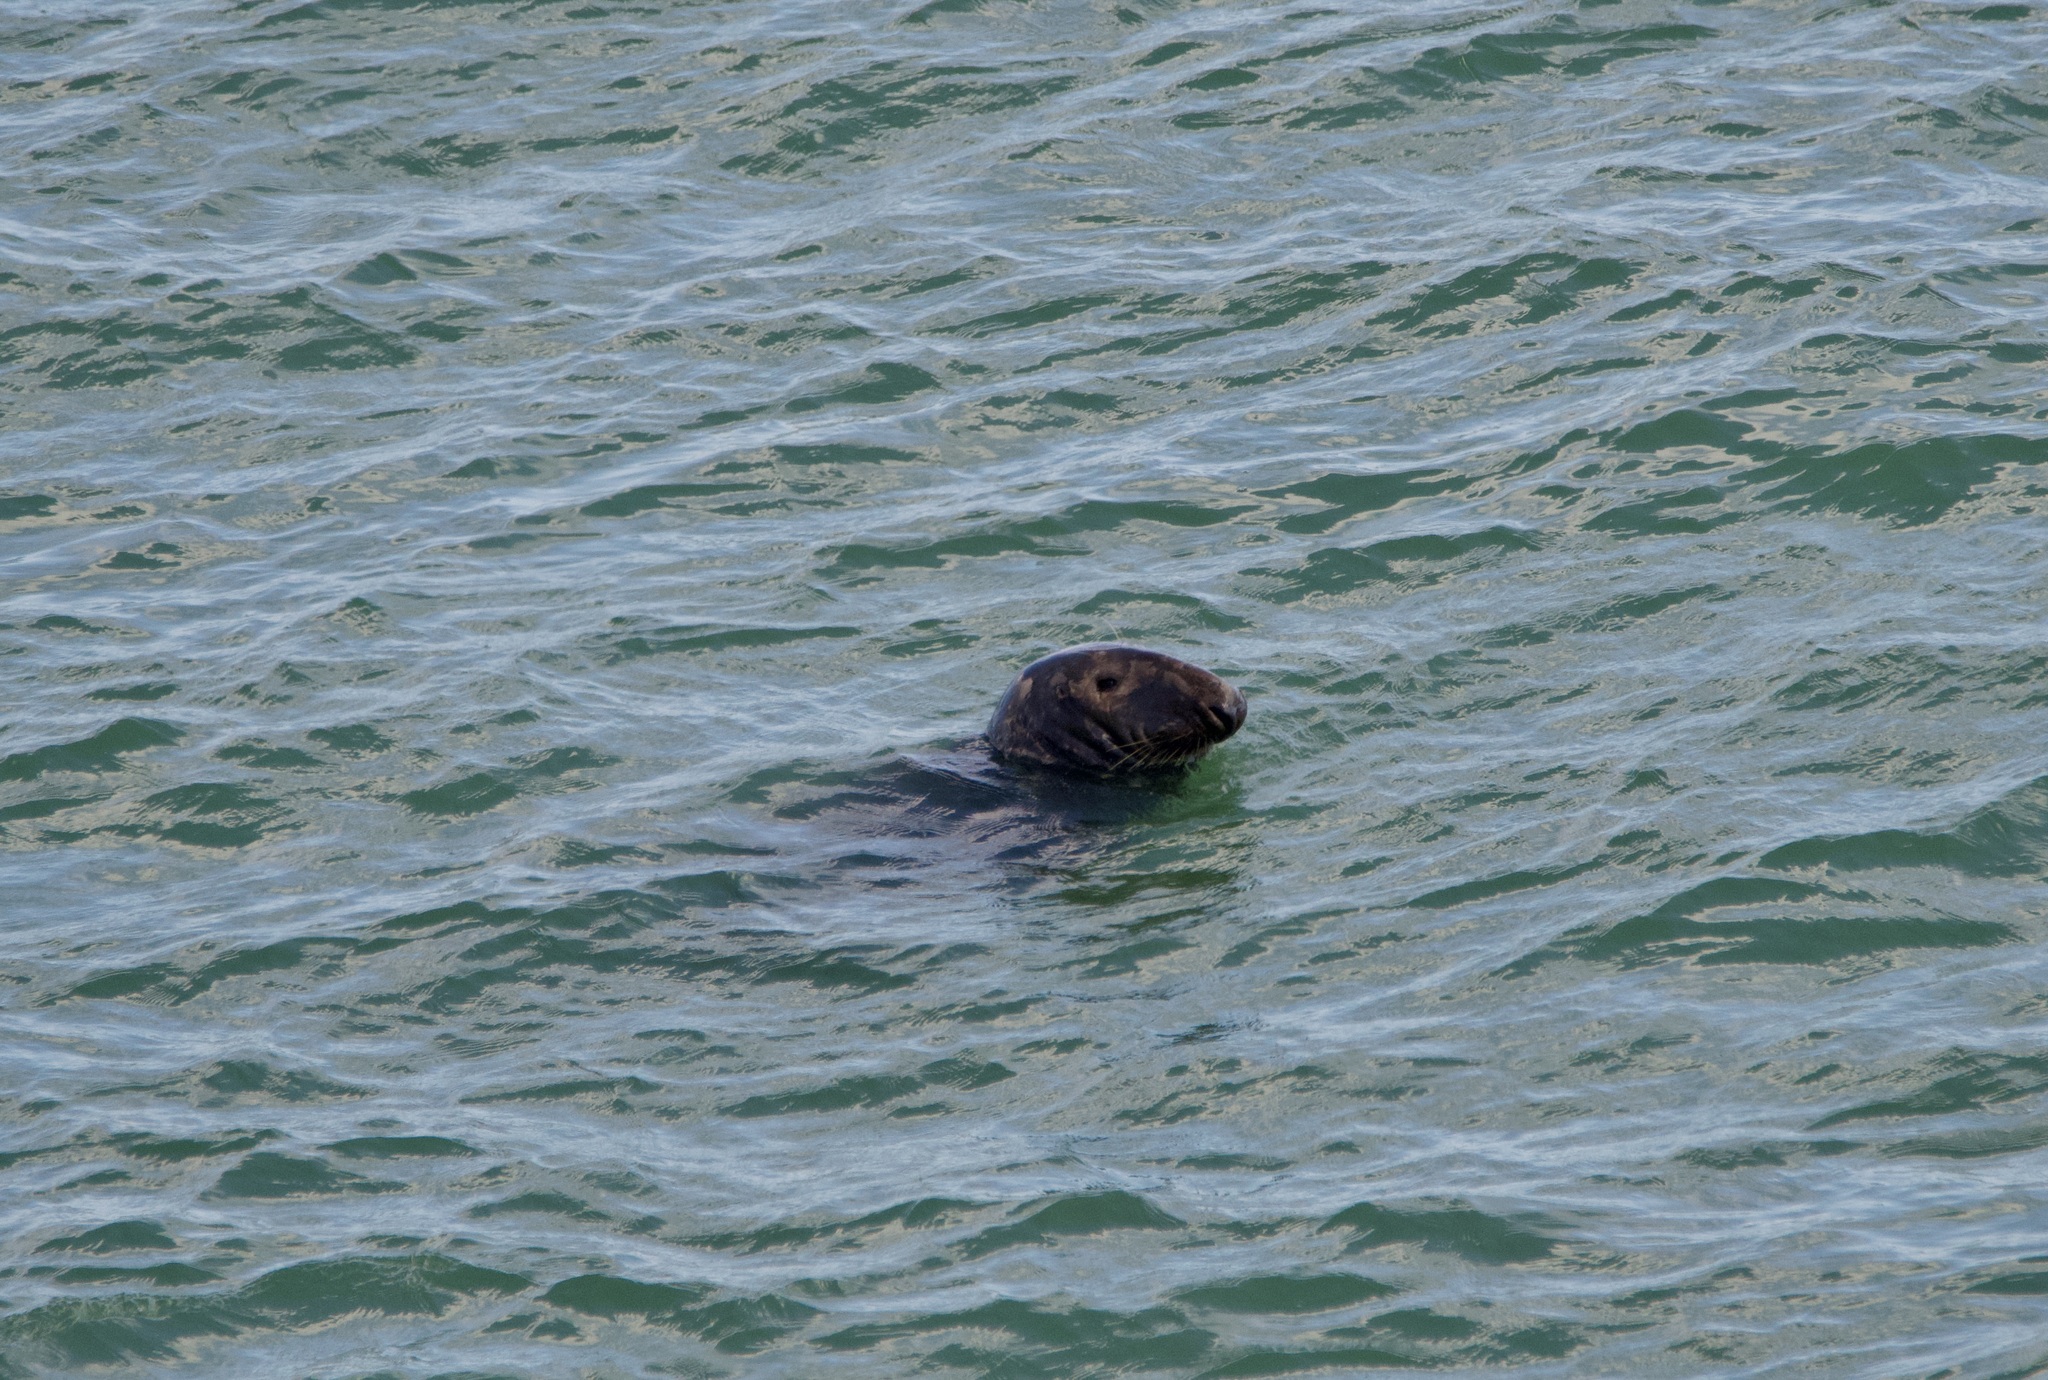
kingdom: Animalia
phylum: Chordata
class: Mammalia
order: Carnivora
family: Phocidae
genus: Halichoerus
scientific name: Halichoerus grypus
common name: Grey seal
